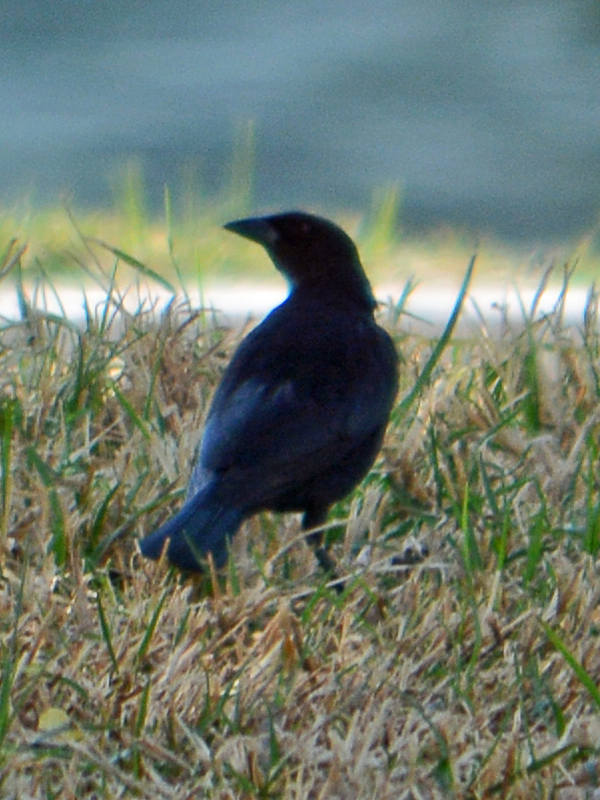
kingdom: Animalia
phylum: Chordata
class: Aves
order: Passeriformes
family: Icteridae
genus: Molothrus
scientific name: Molothrus aeneus
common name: Bronzed cowbird
